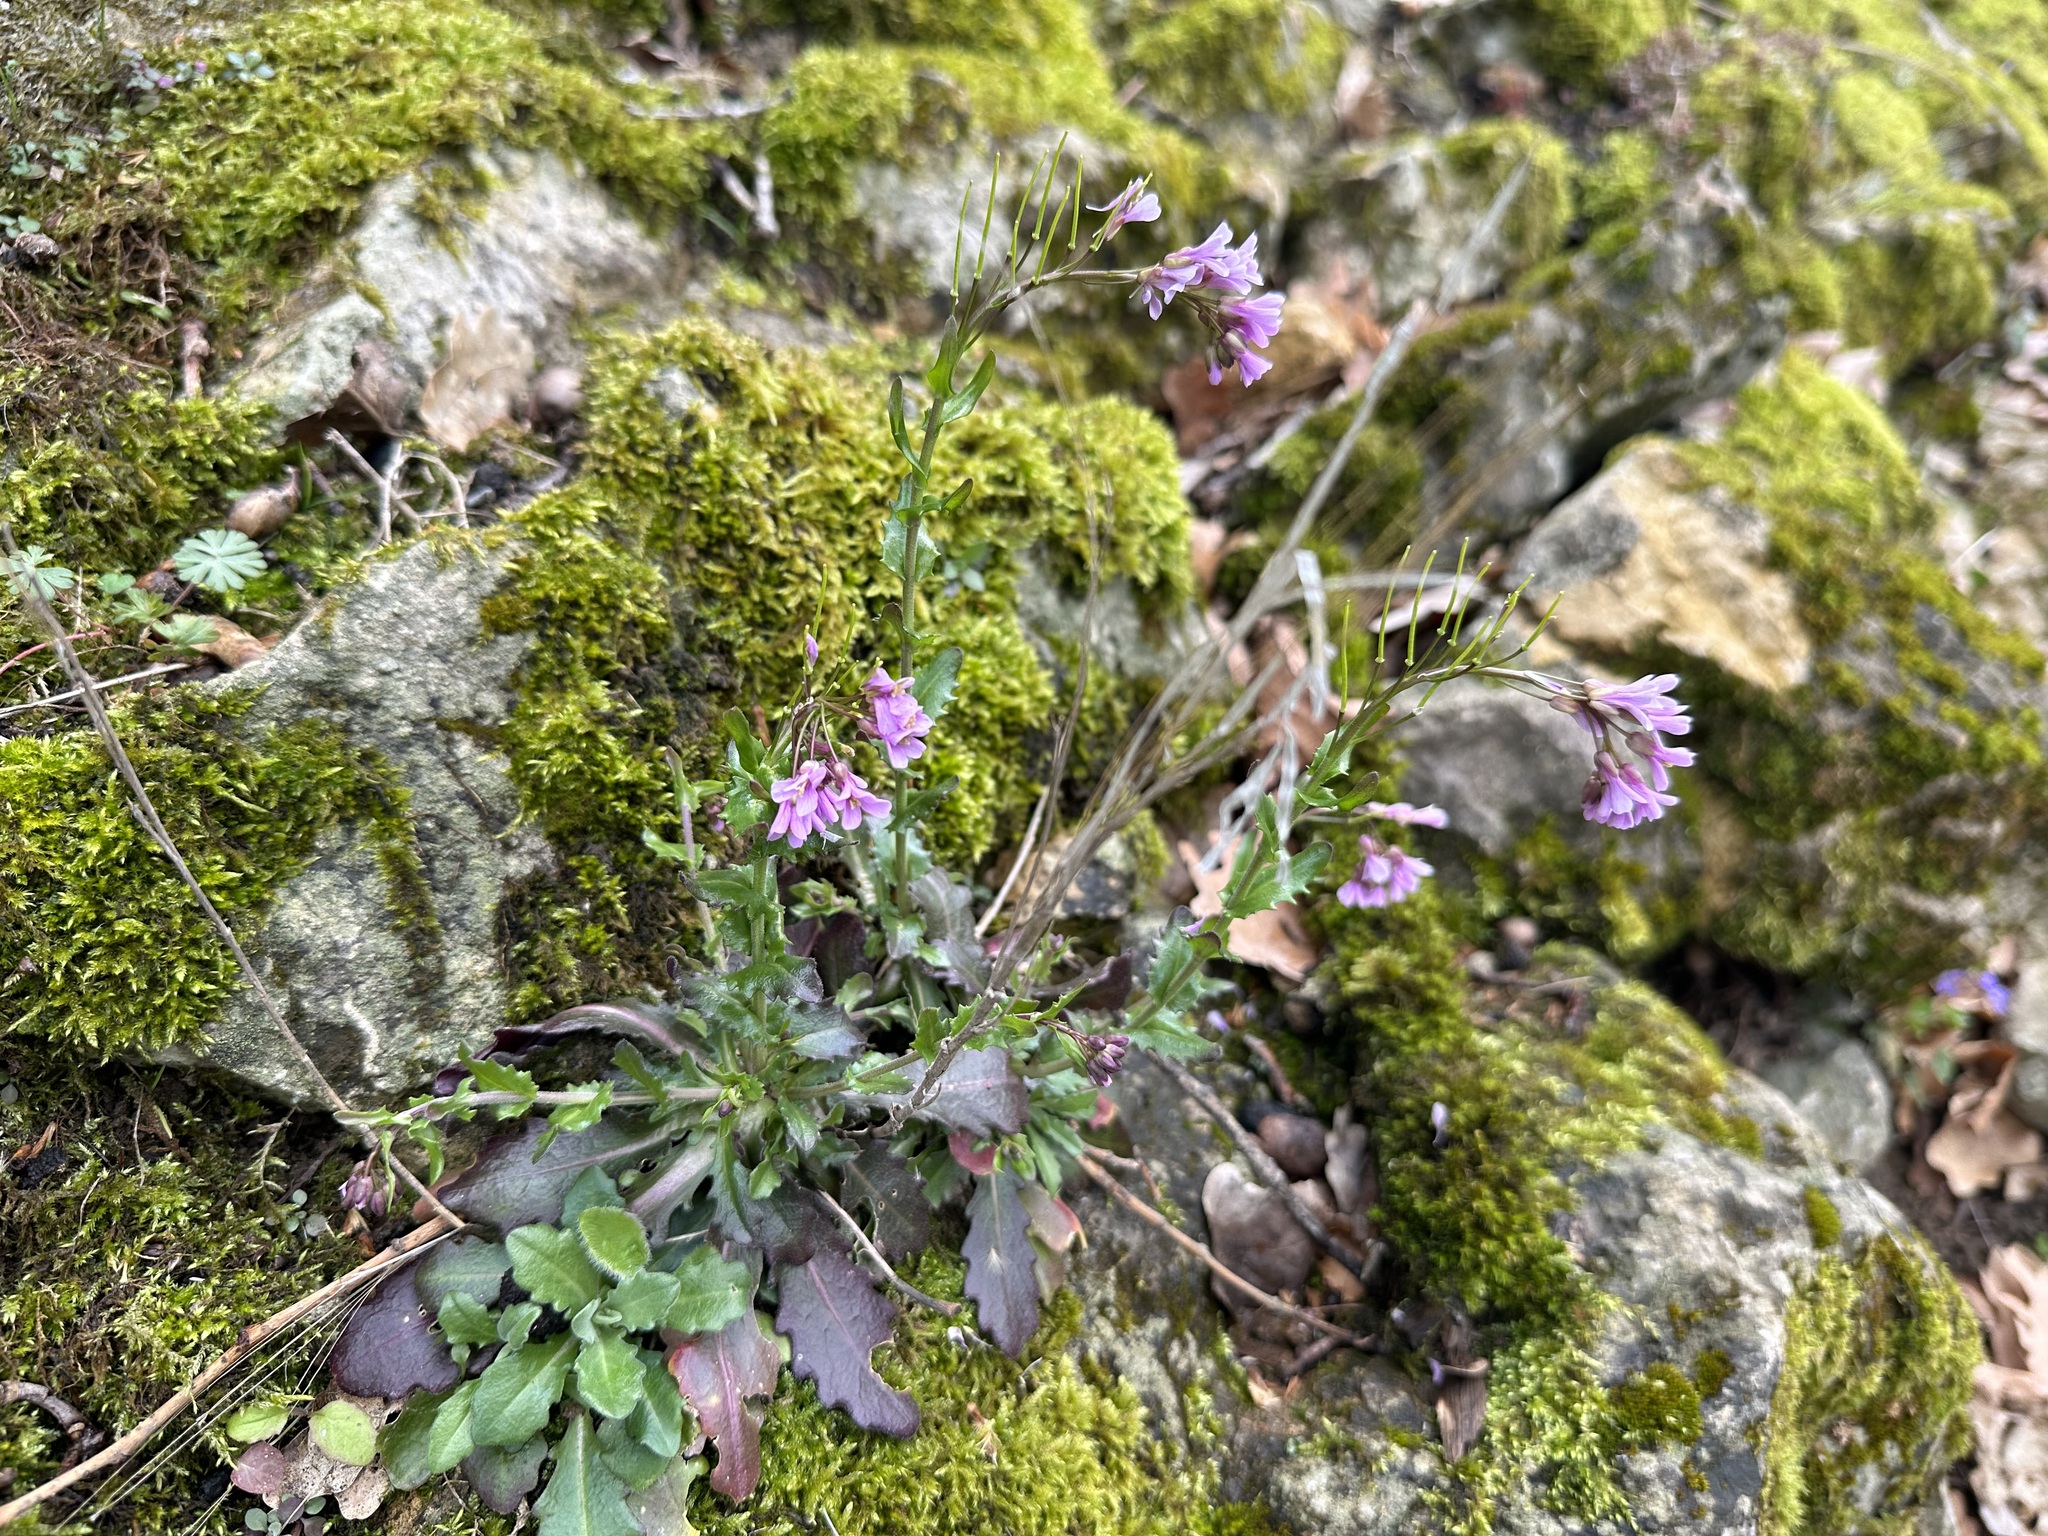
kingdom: Plantae
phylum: Tracheophyta
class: Magnoliopsida
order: Brassicales
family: Brassicaceae
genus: Arabis
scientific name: Arabis collina
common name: Rosy cress
